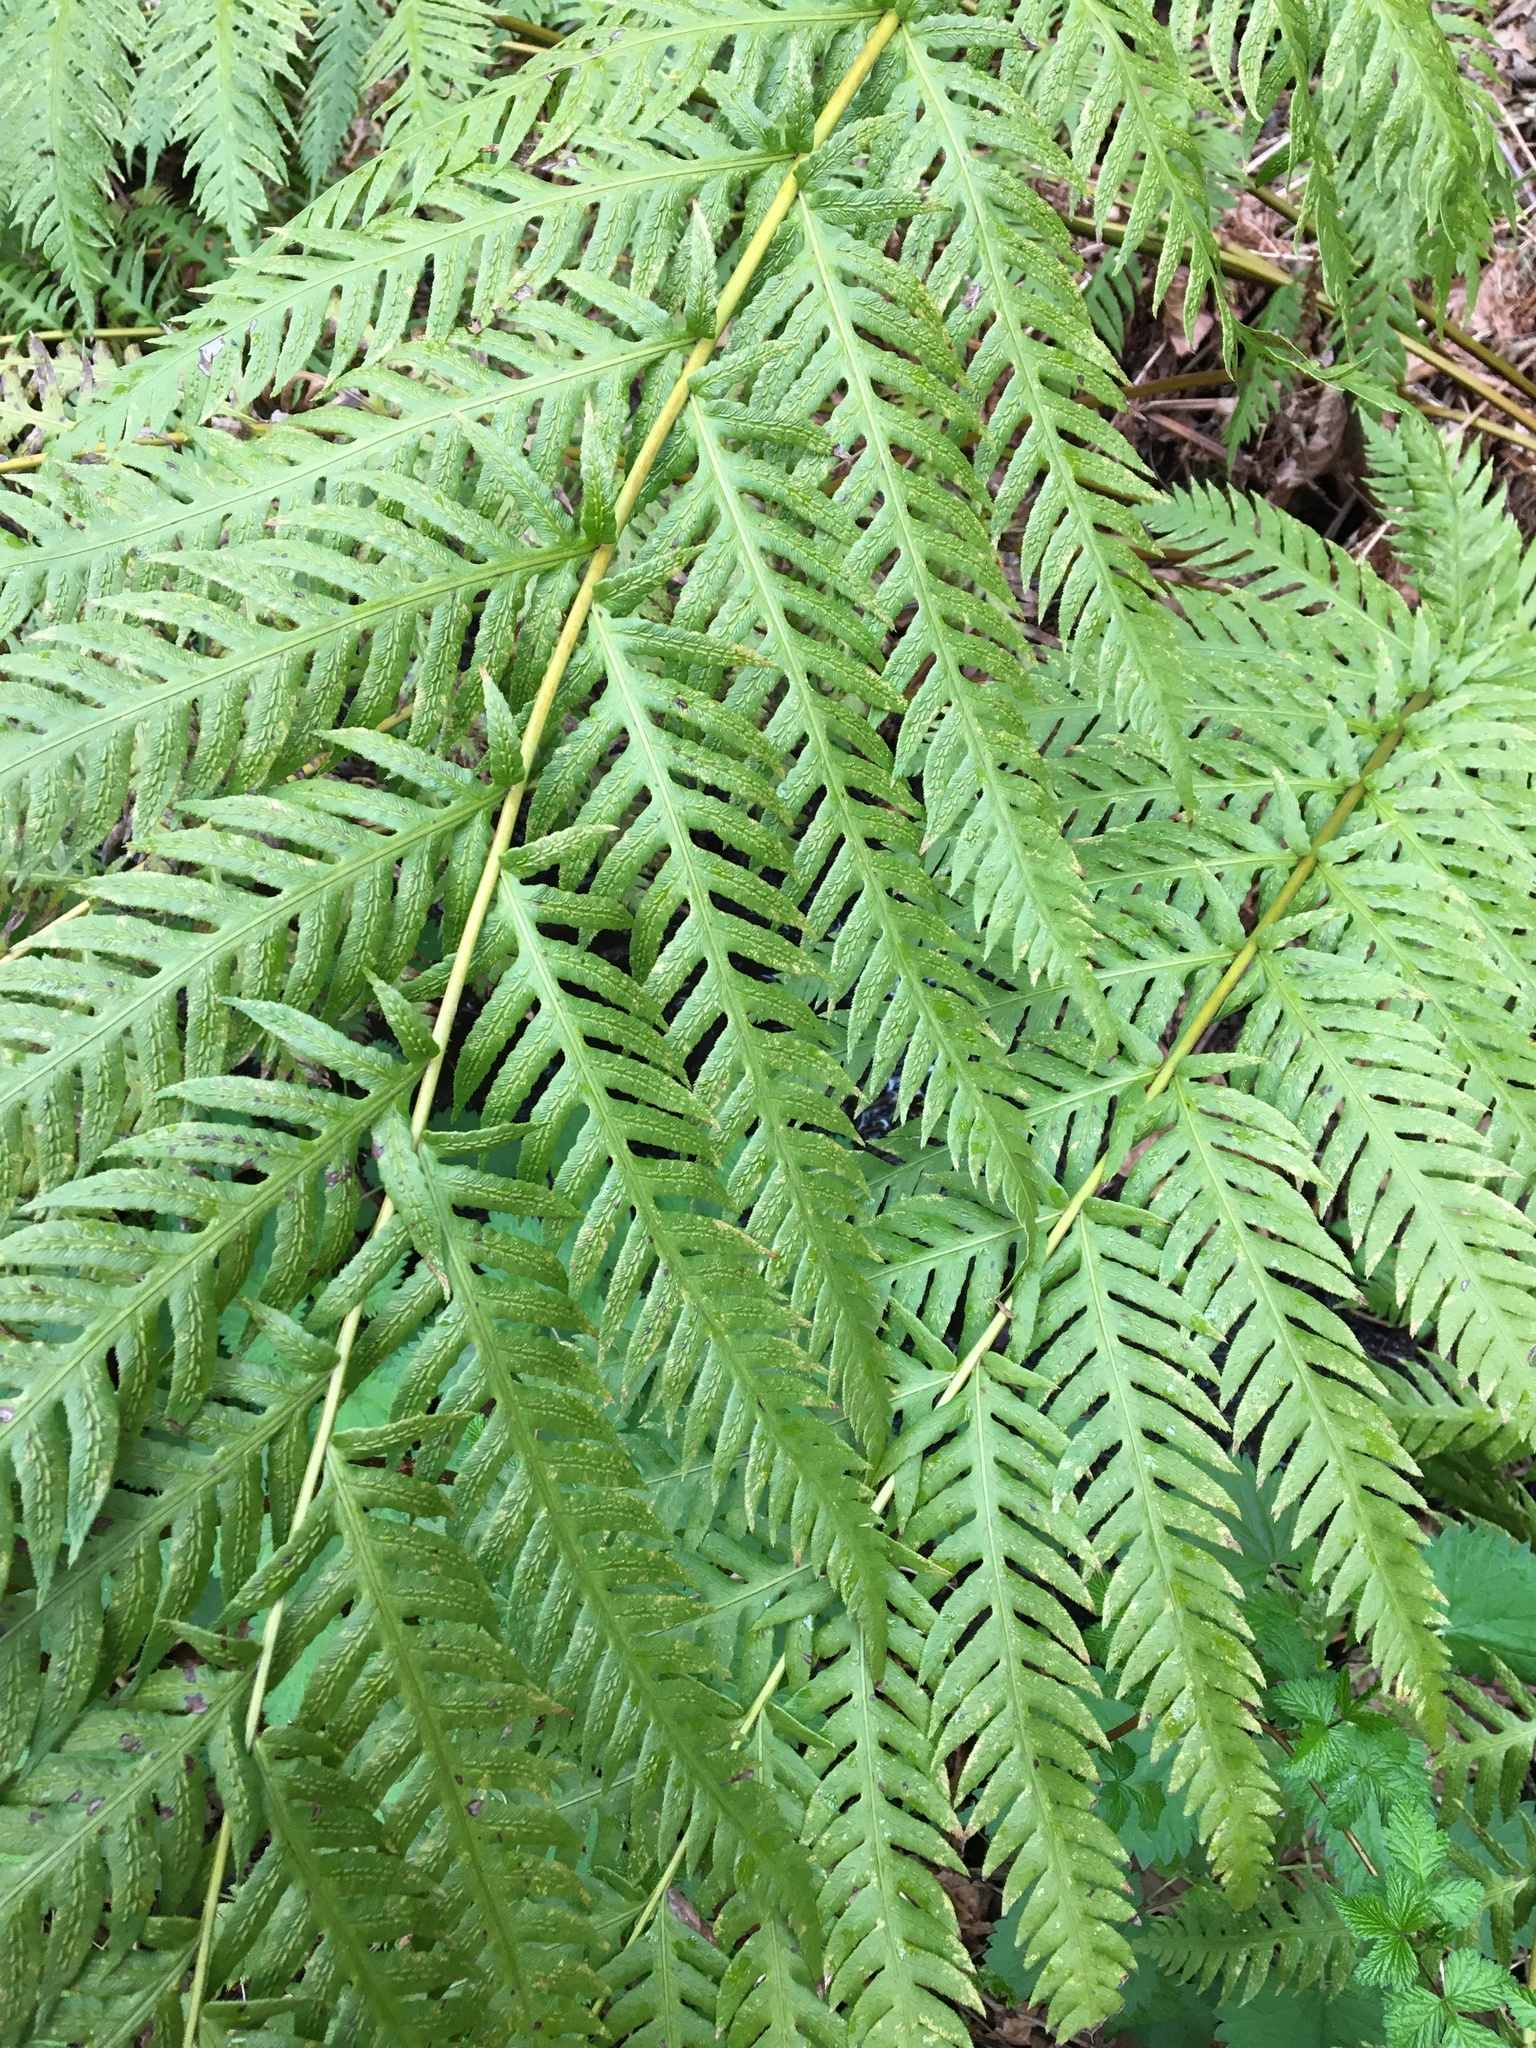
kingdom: Plantae
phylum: Tracheophyta
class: Polypodiopsida
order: Polypodiales
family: Blechnaceae
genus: Woodwardia
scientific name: Woodwardia fimbriata
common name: Giant chain fern
